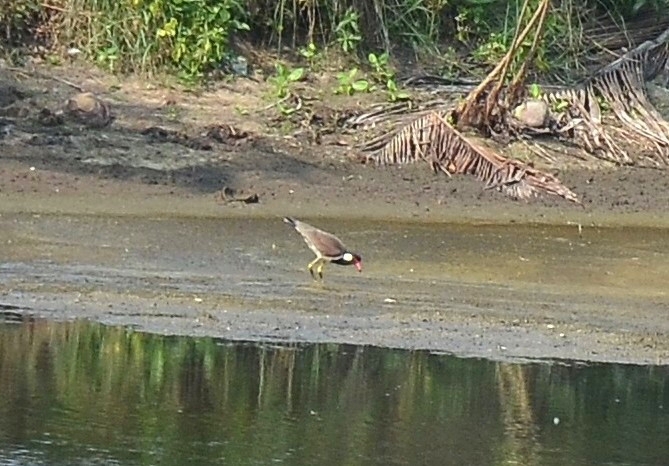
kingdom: Animalia
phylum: Chordata
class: Aves
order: Charadriiformes
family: Charadriidae
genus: Vanellus
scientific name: Vanellus indicus
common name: Red-wattled lapwing
